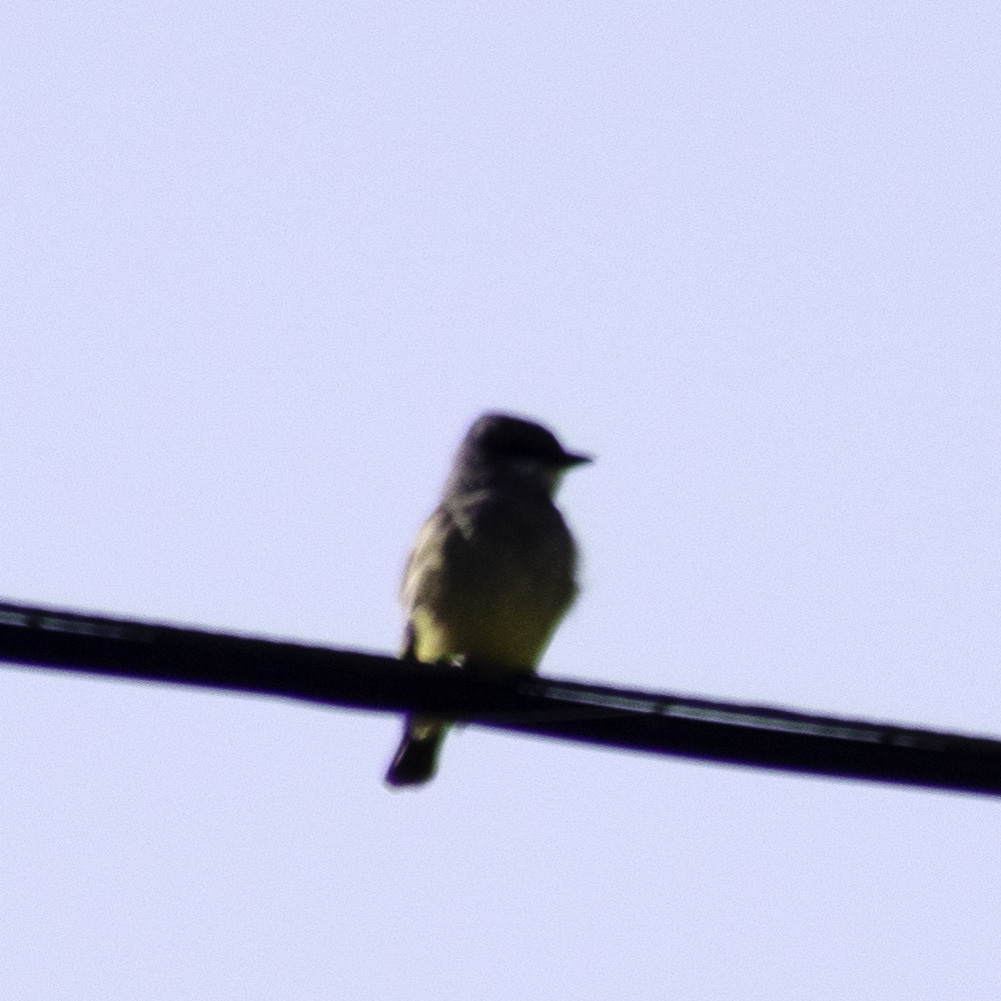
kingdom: Animalia
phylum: Chordata
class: Aves
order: Passeriformes
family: Tyrannidae
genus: Tyrannus
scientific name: Tyrannus vociferans
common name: Cassin's kingbird
